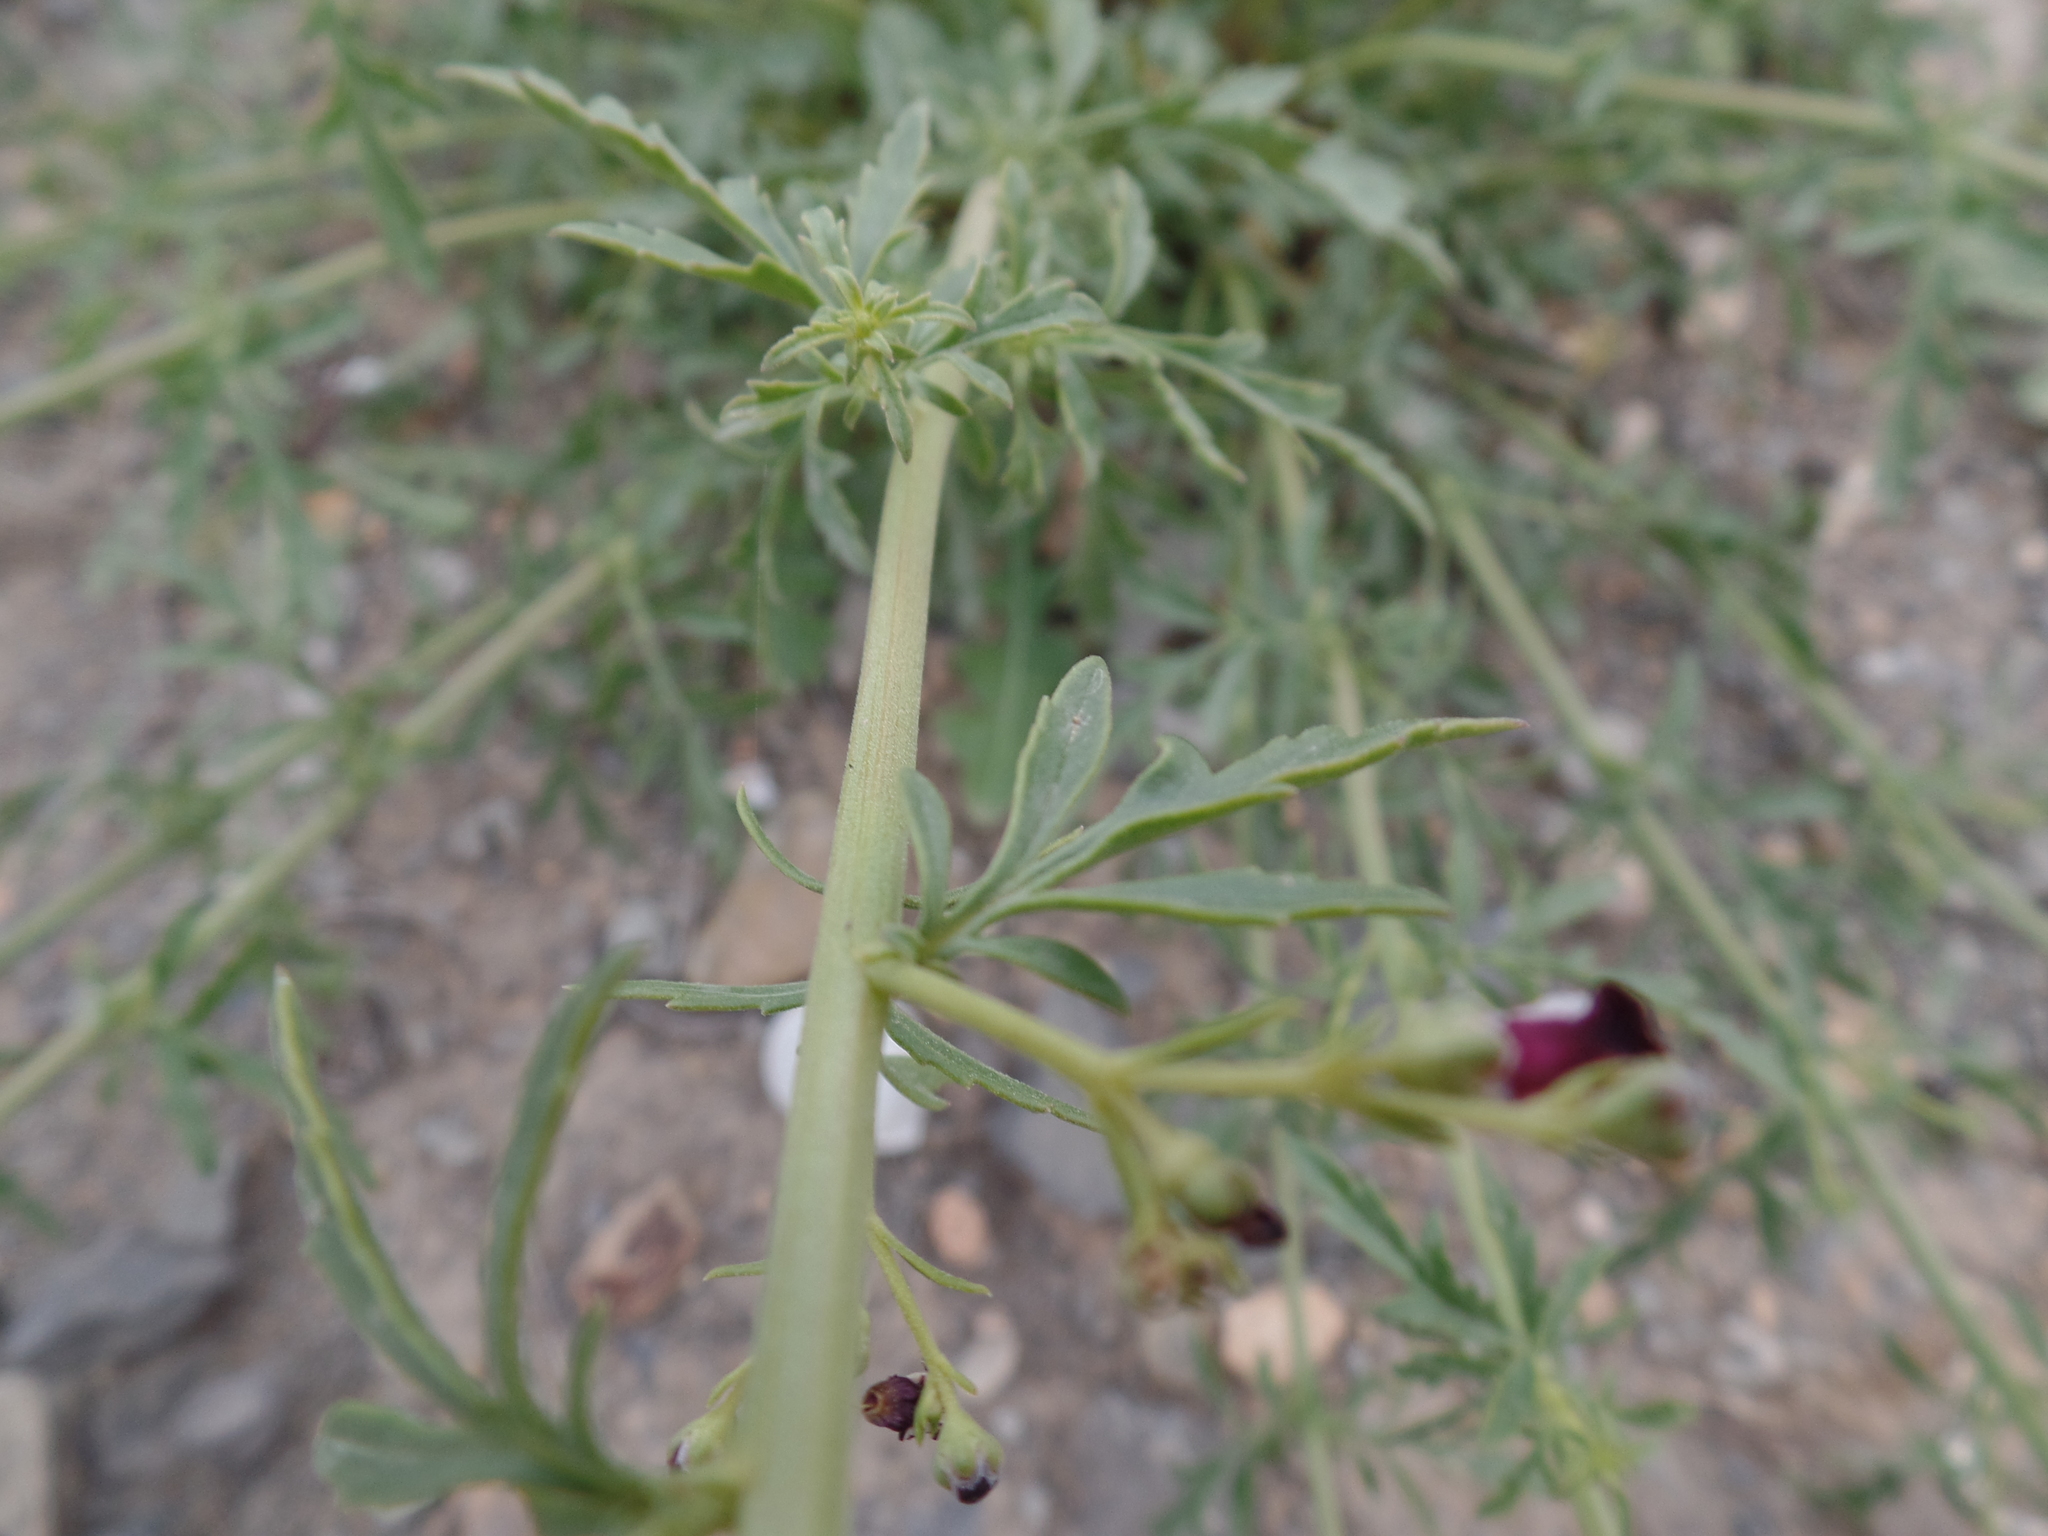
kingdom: Plantae
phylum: Tracheophyta
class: Magnoliopsida
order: Lamiales
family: Scrophulariaceae
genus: Scrophularia
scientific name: Scrophularia canina
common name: French figwort
